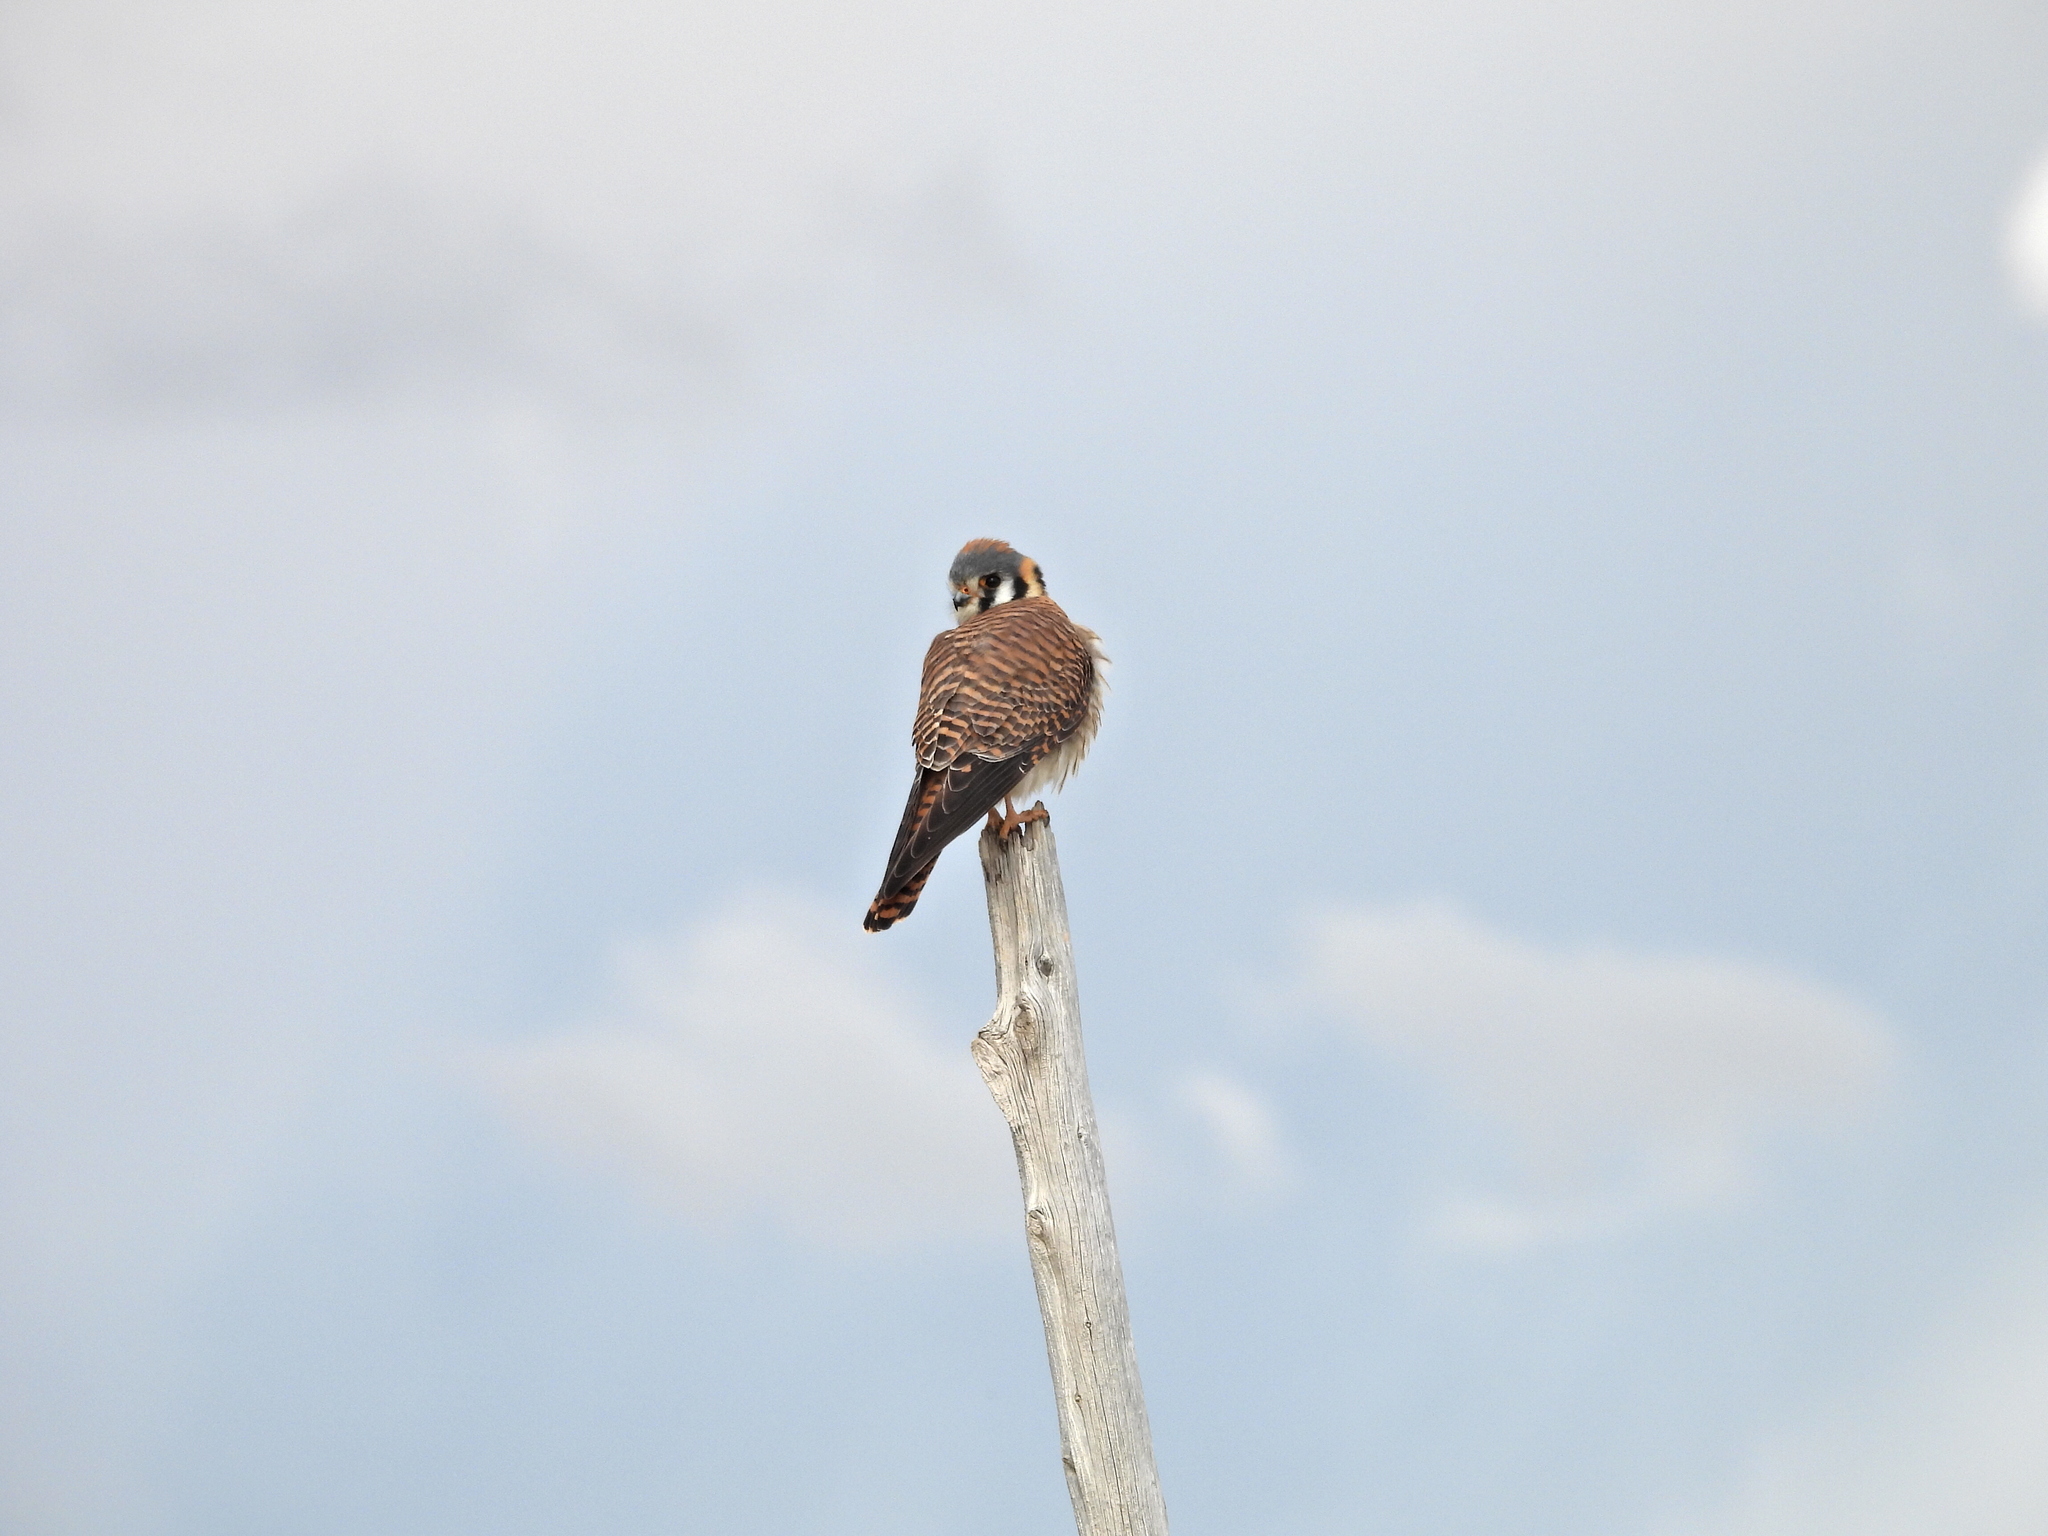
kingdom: Animalia
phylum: Chordata
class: Aves
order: Falconiformes
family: Falconidae
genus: Falco
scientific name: Falco sparverius
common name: American kestrel
